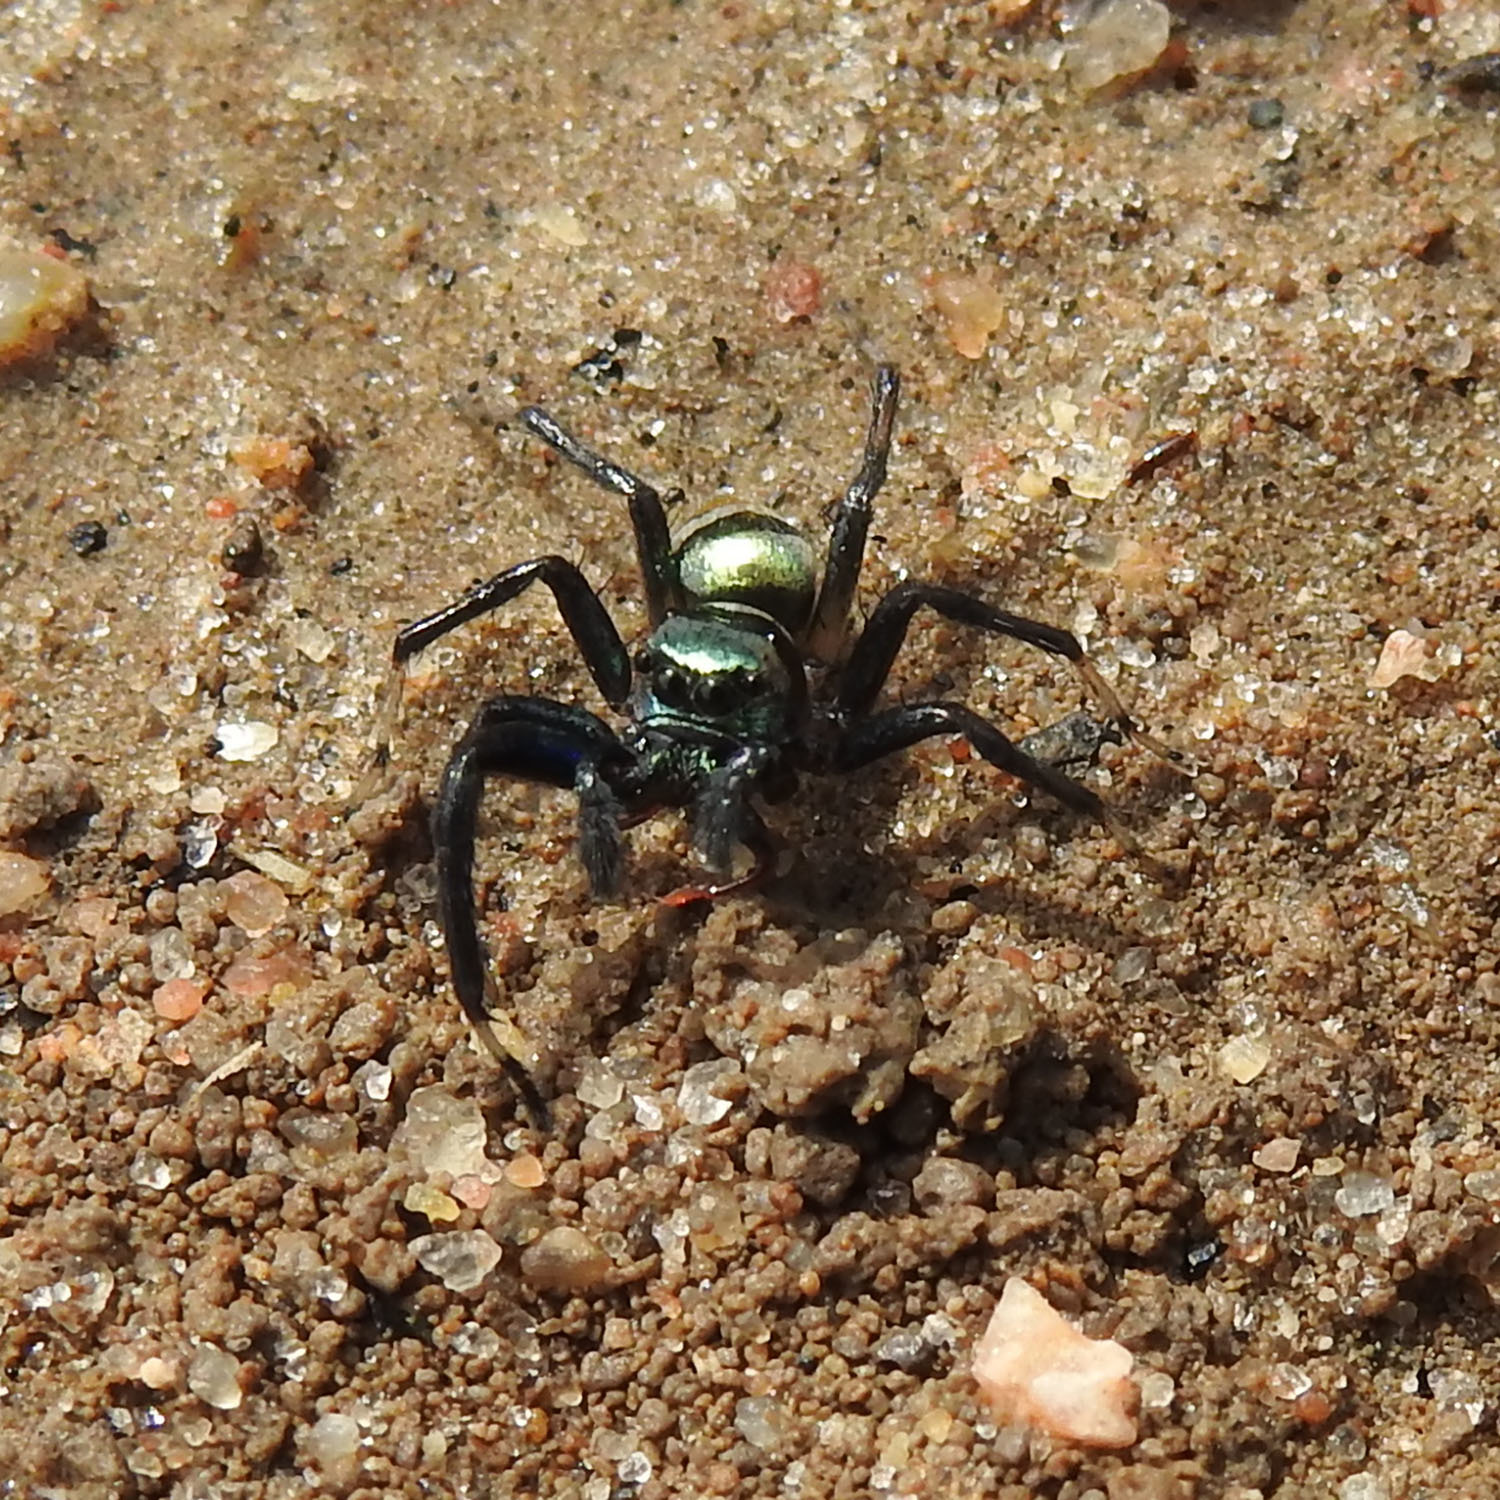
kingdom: Animalia
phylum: Arthropoda
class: Arachnida
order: Araneae
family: Salticidae
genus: Phintella
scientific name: Phintella vittata
